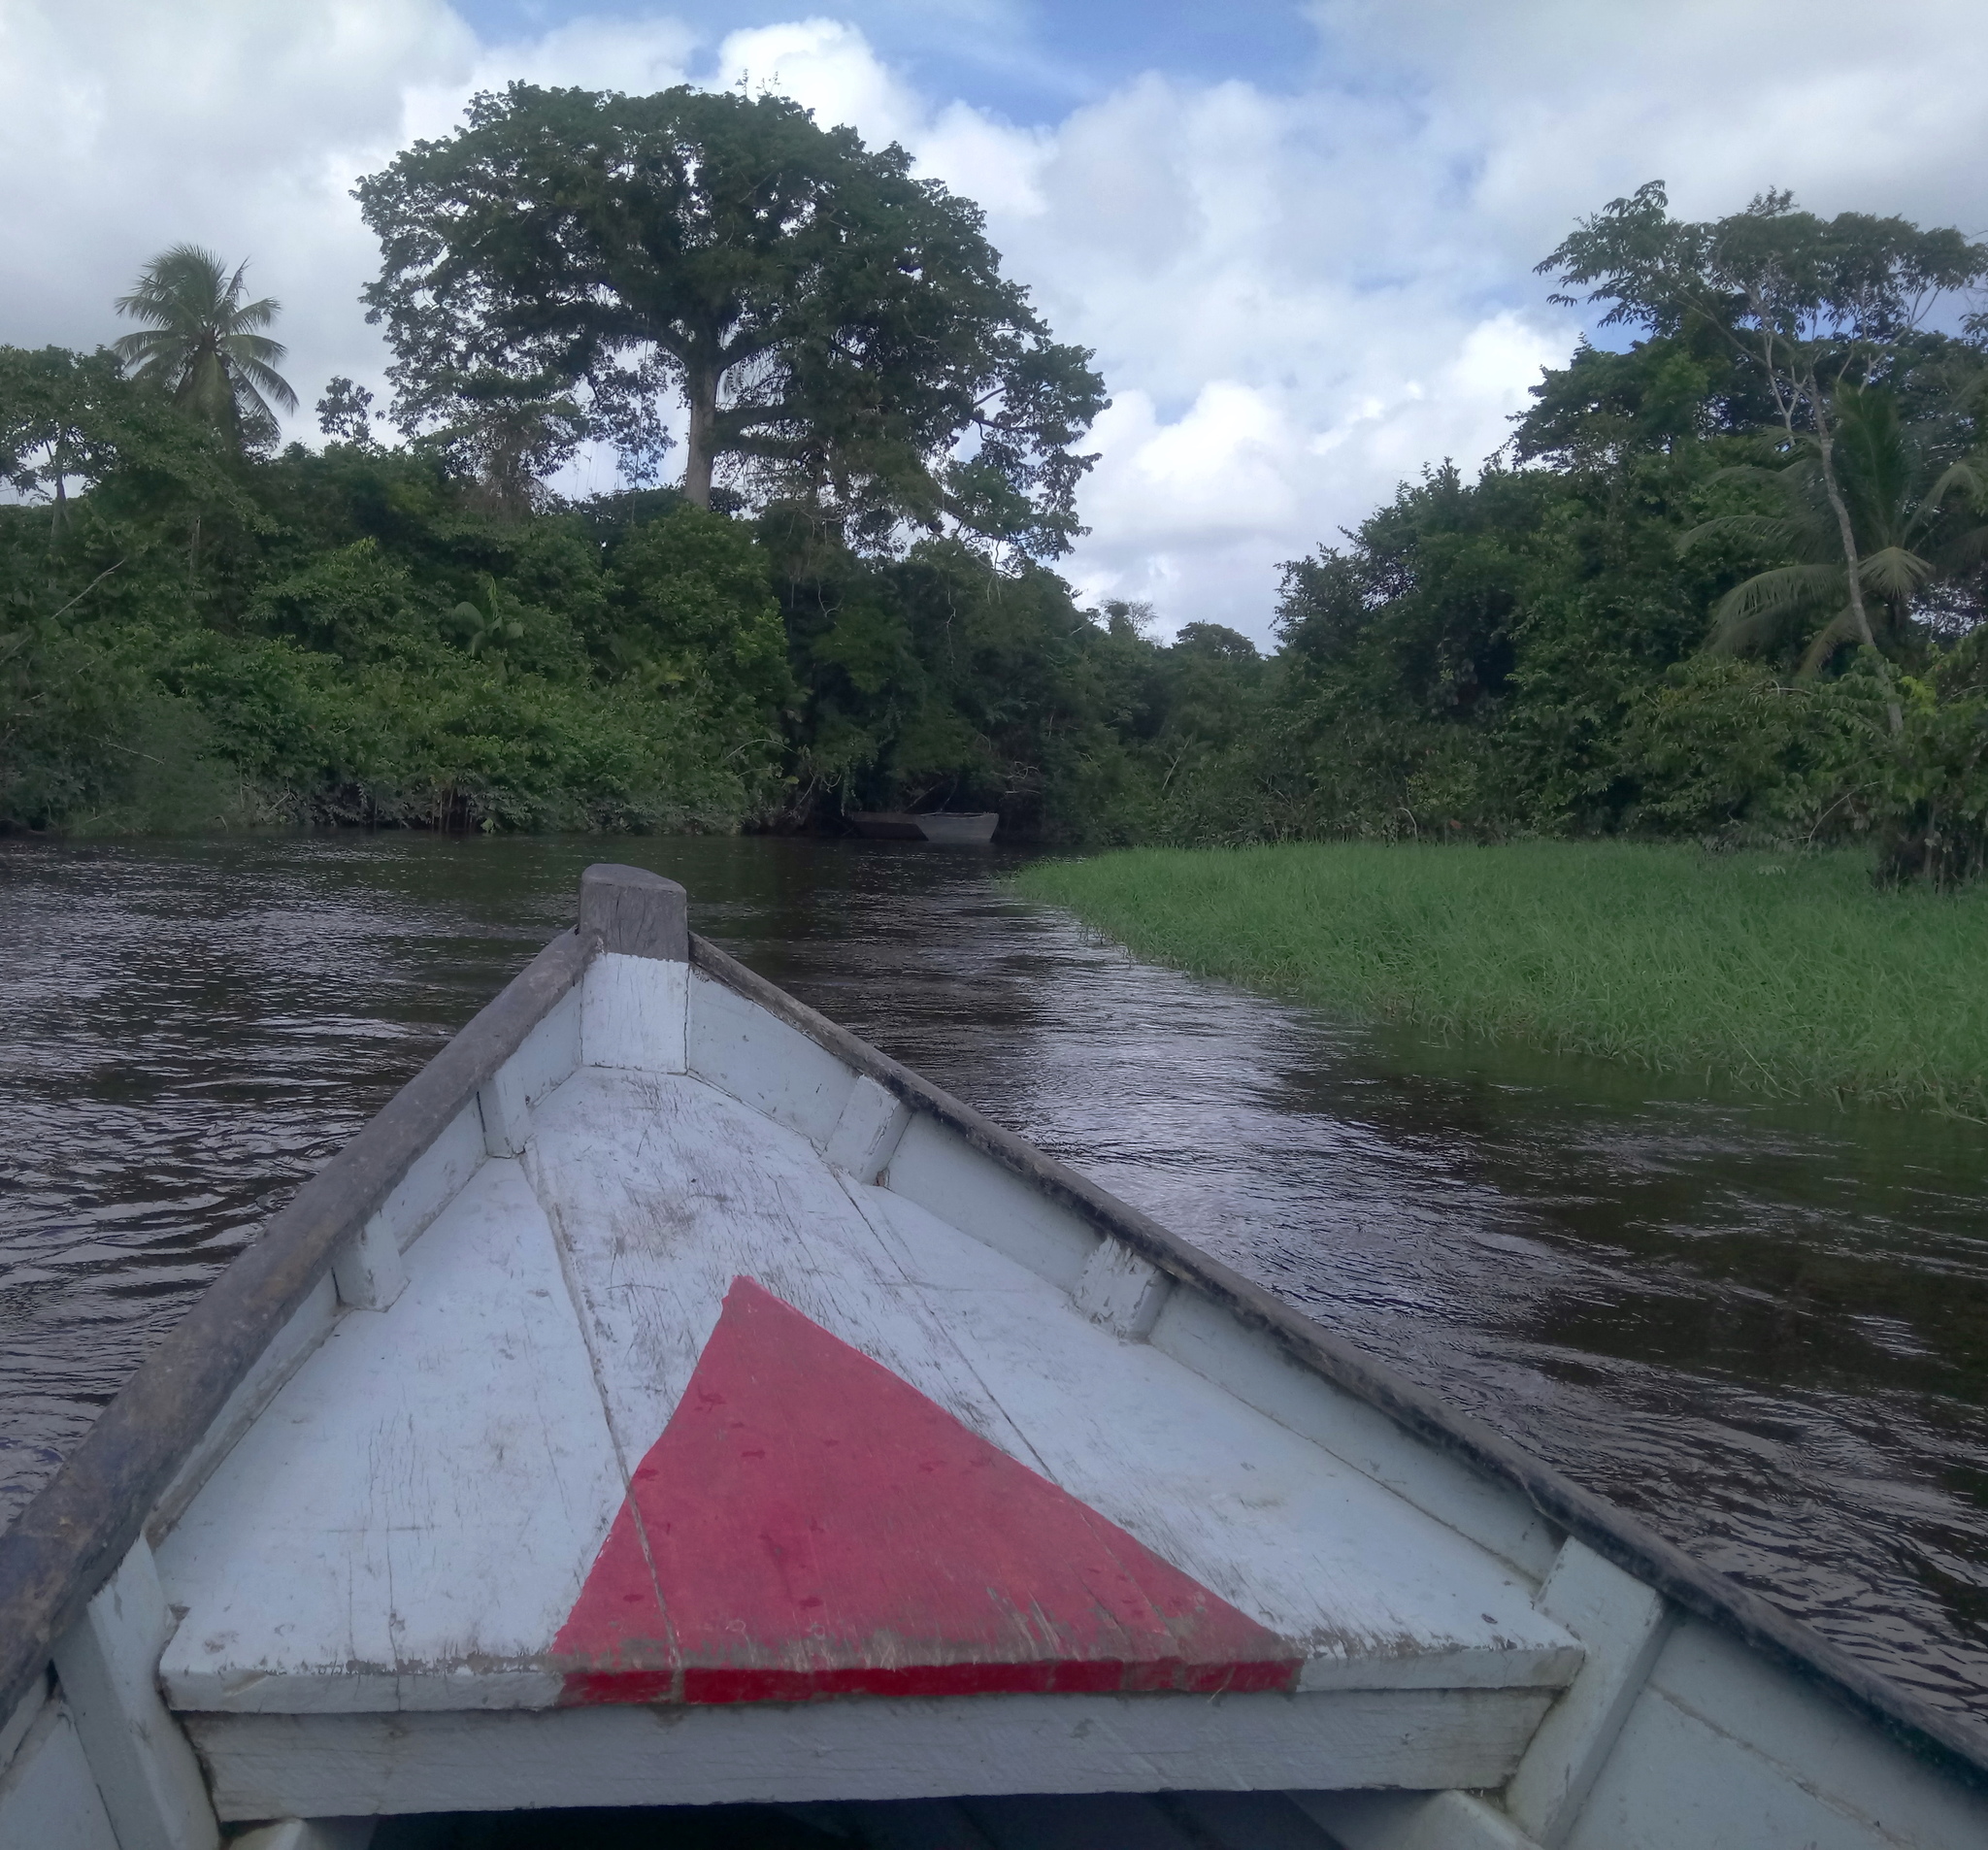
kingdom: Plantae
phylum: Tracheophyta
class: Magnoliopsida
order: Malvales
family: Malvaceae
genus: Ceiba
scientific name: Ceiba pentandra
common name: Kapok
